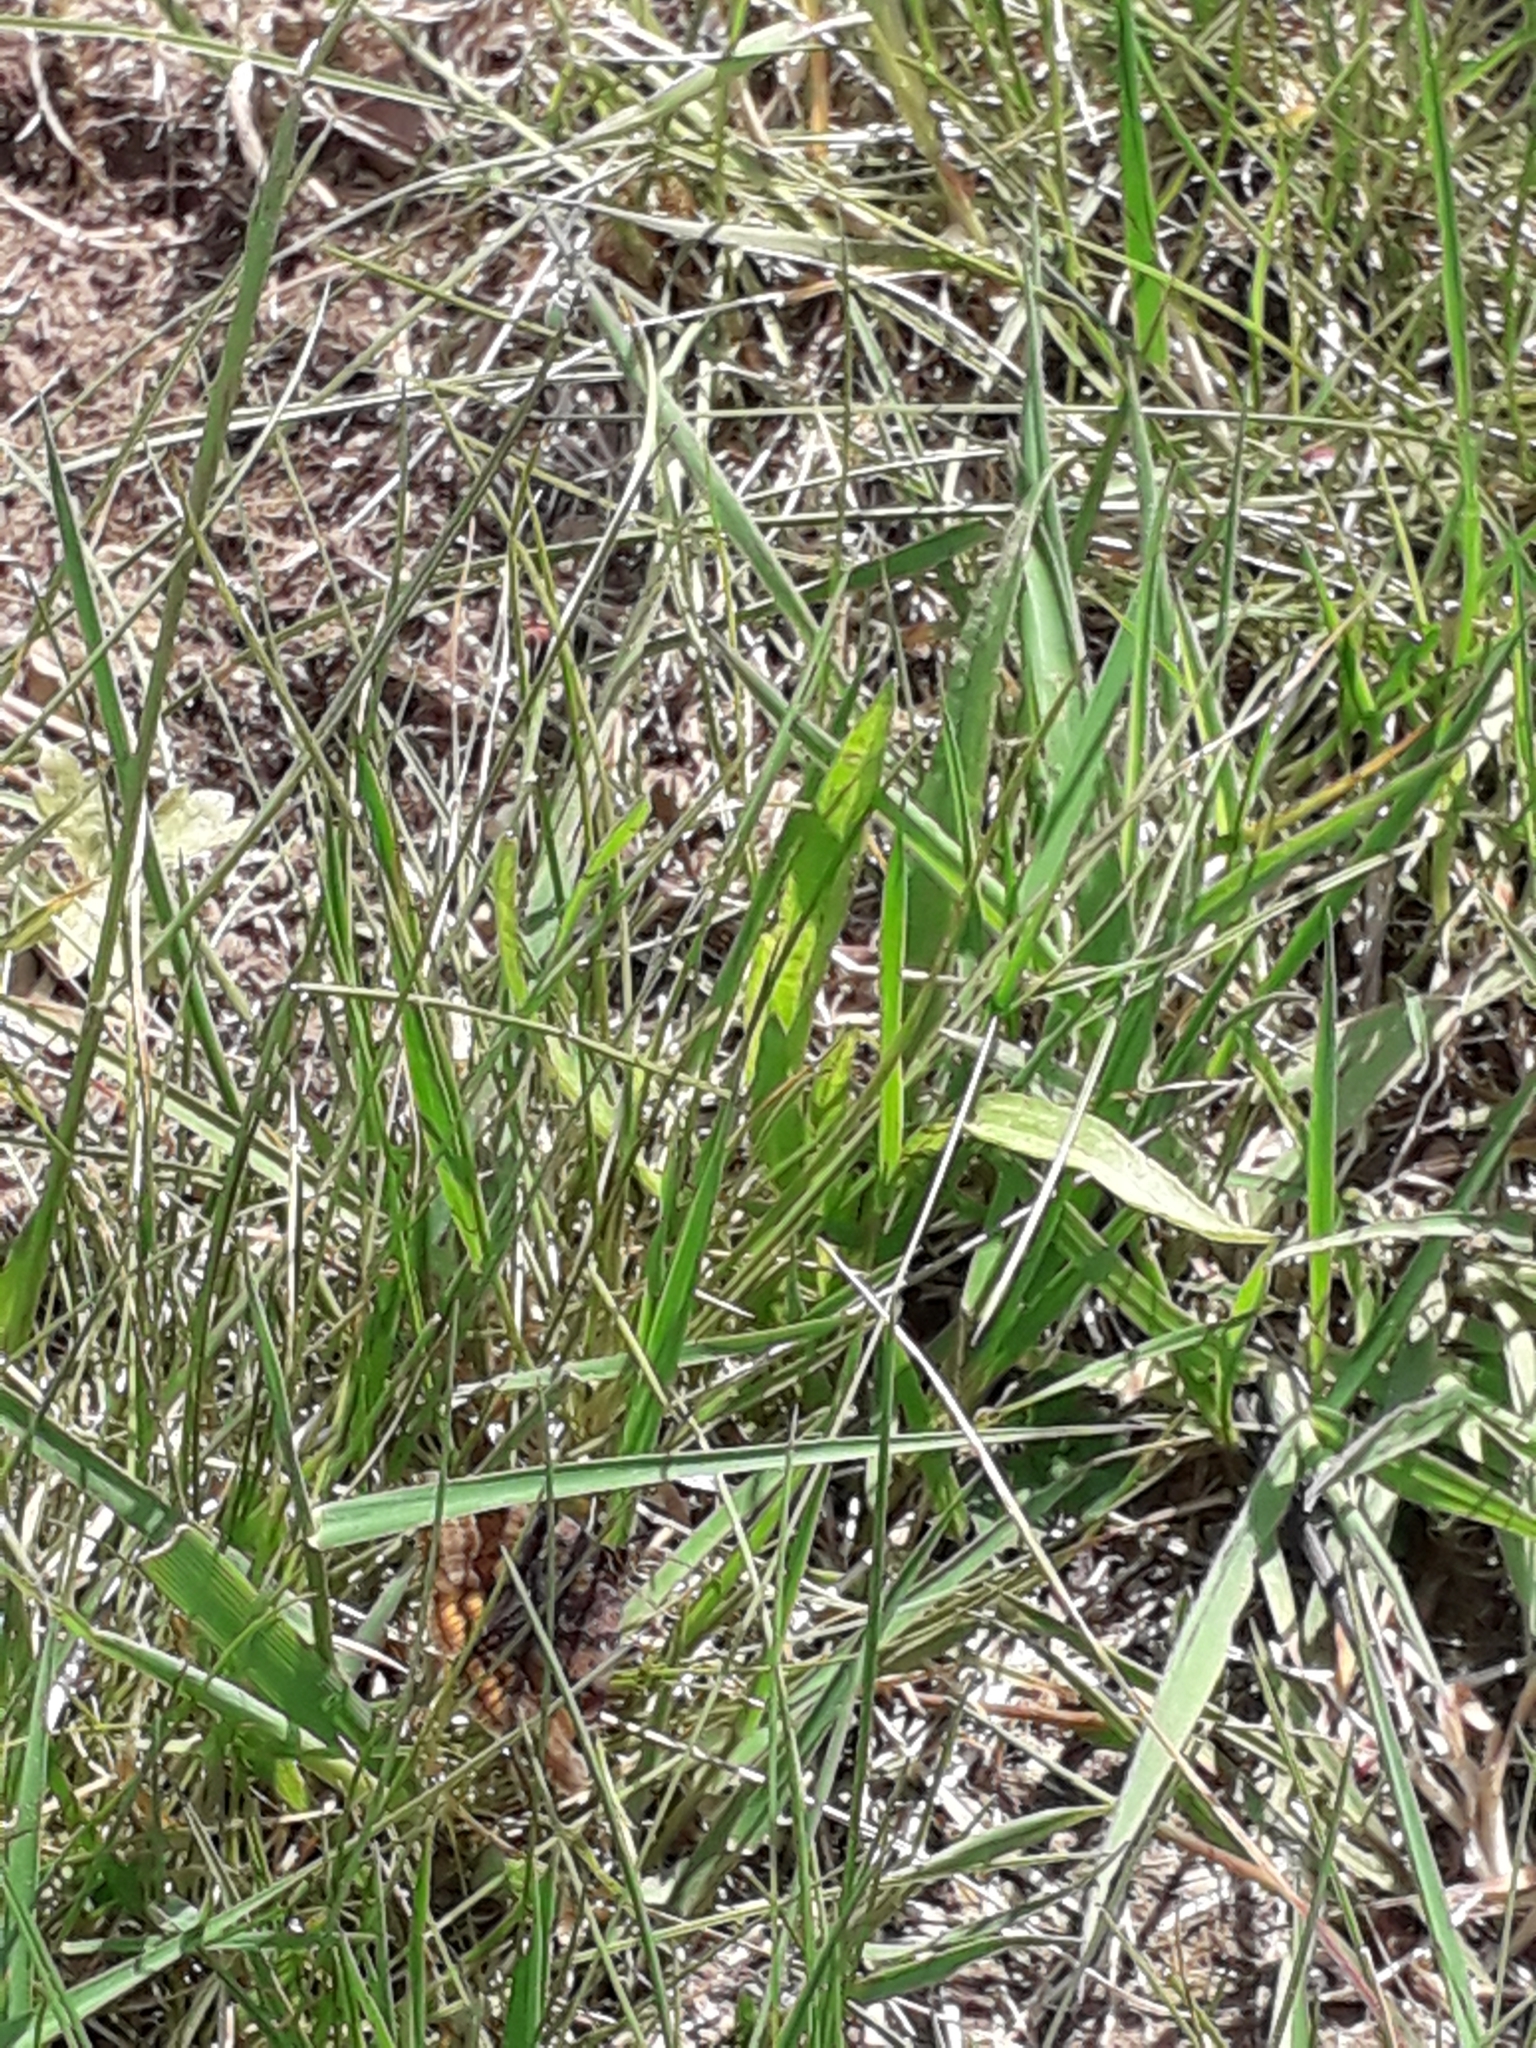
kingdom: Animalia
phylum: Arthropoda
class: Insecta
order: Lepidoptera
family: Erebidae
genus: Euclidia
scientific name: Euclidia glyphica
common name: Burnet companion
